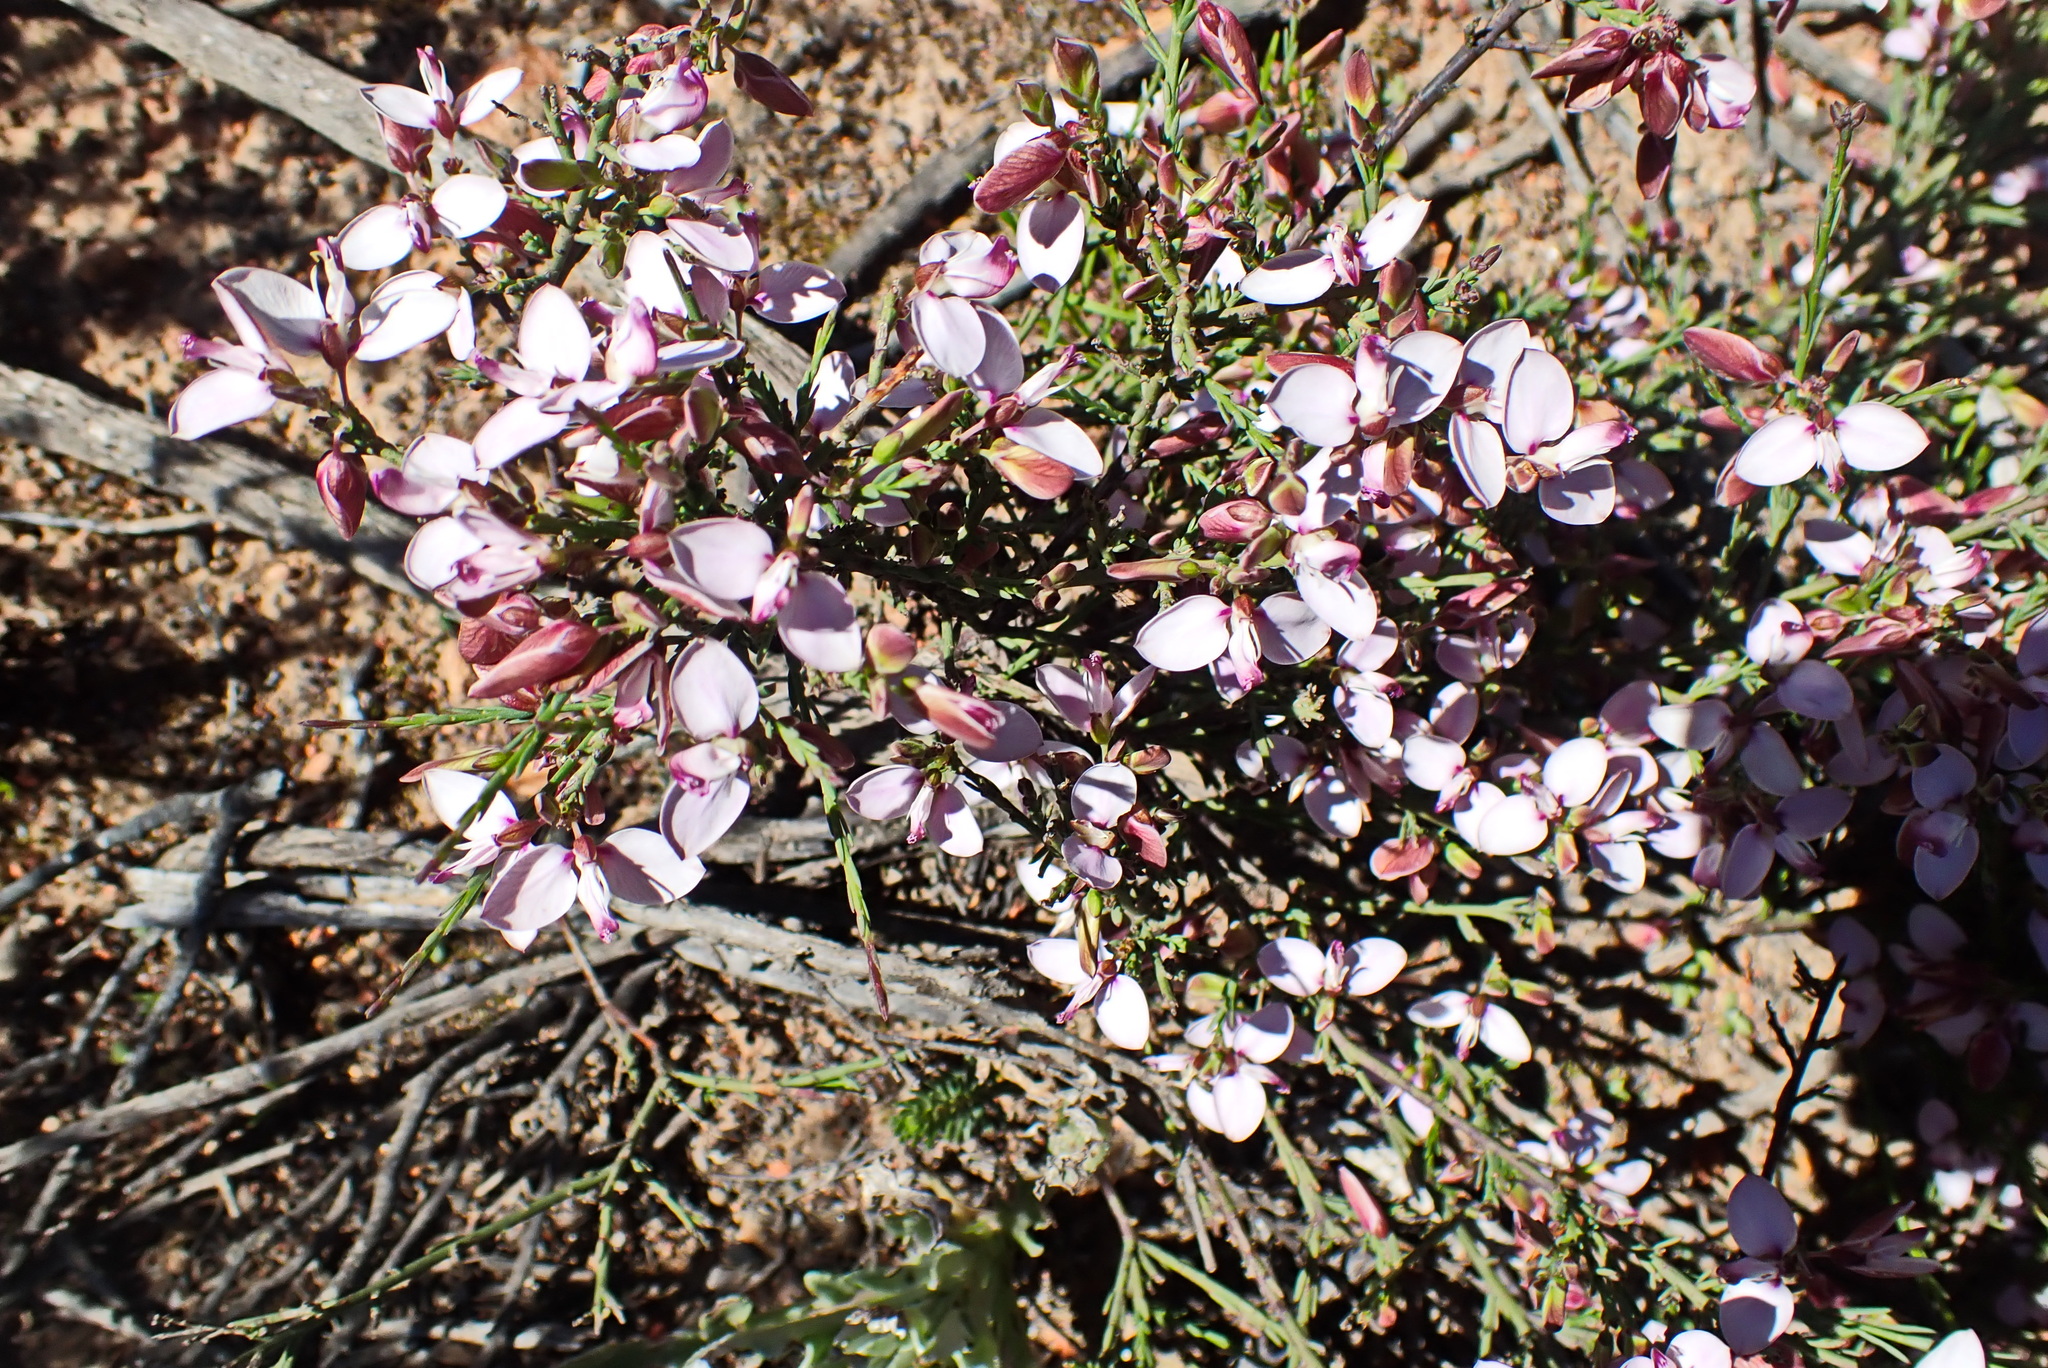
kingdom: Plantae
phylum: Tracheophyta
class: Magnoliopsida
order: Fabales
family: Polygalaceae
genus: Polygala
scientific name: Polygala microlopha
